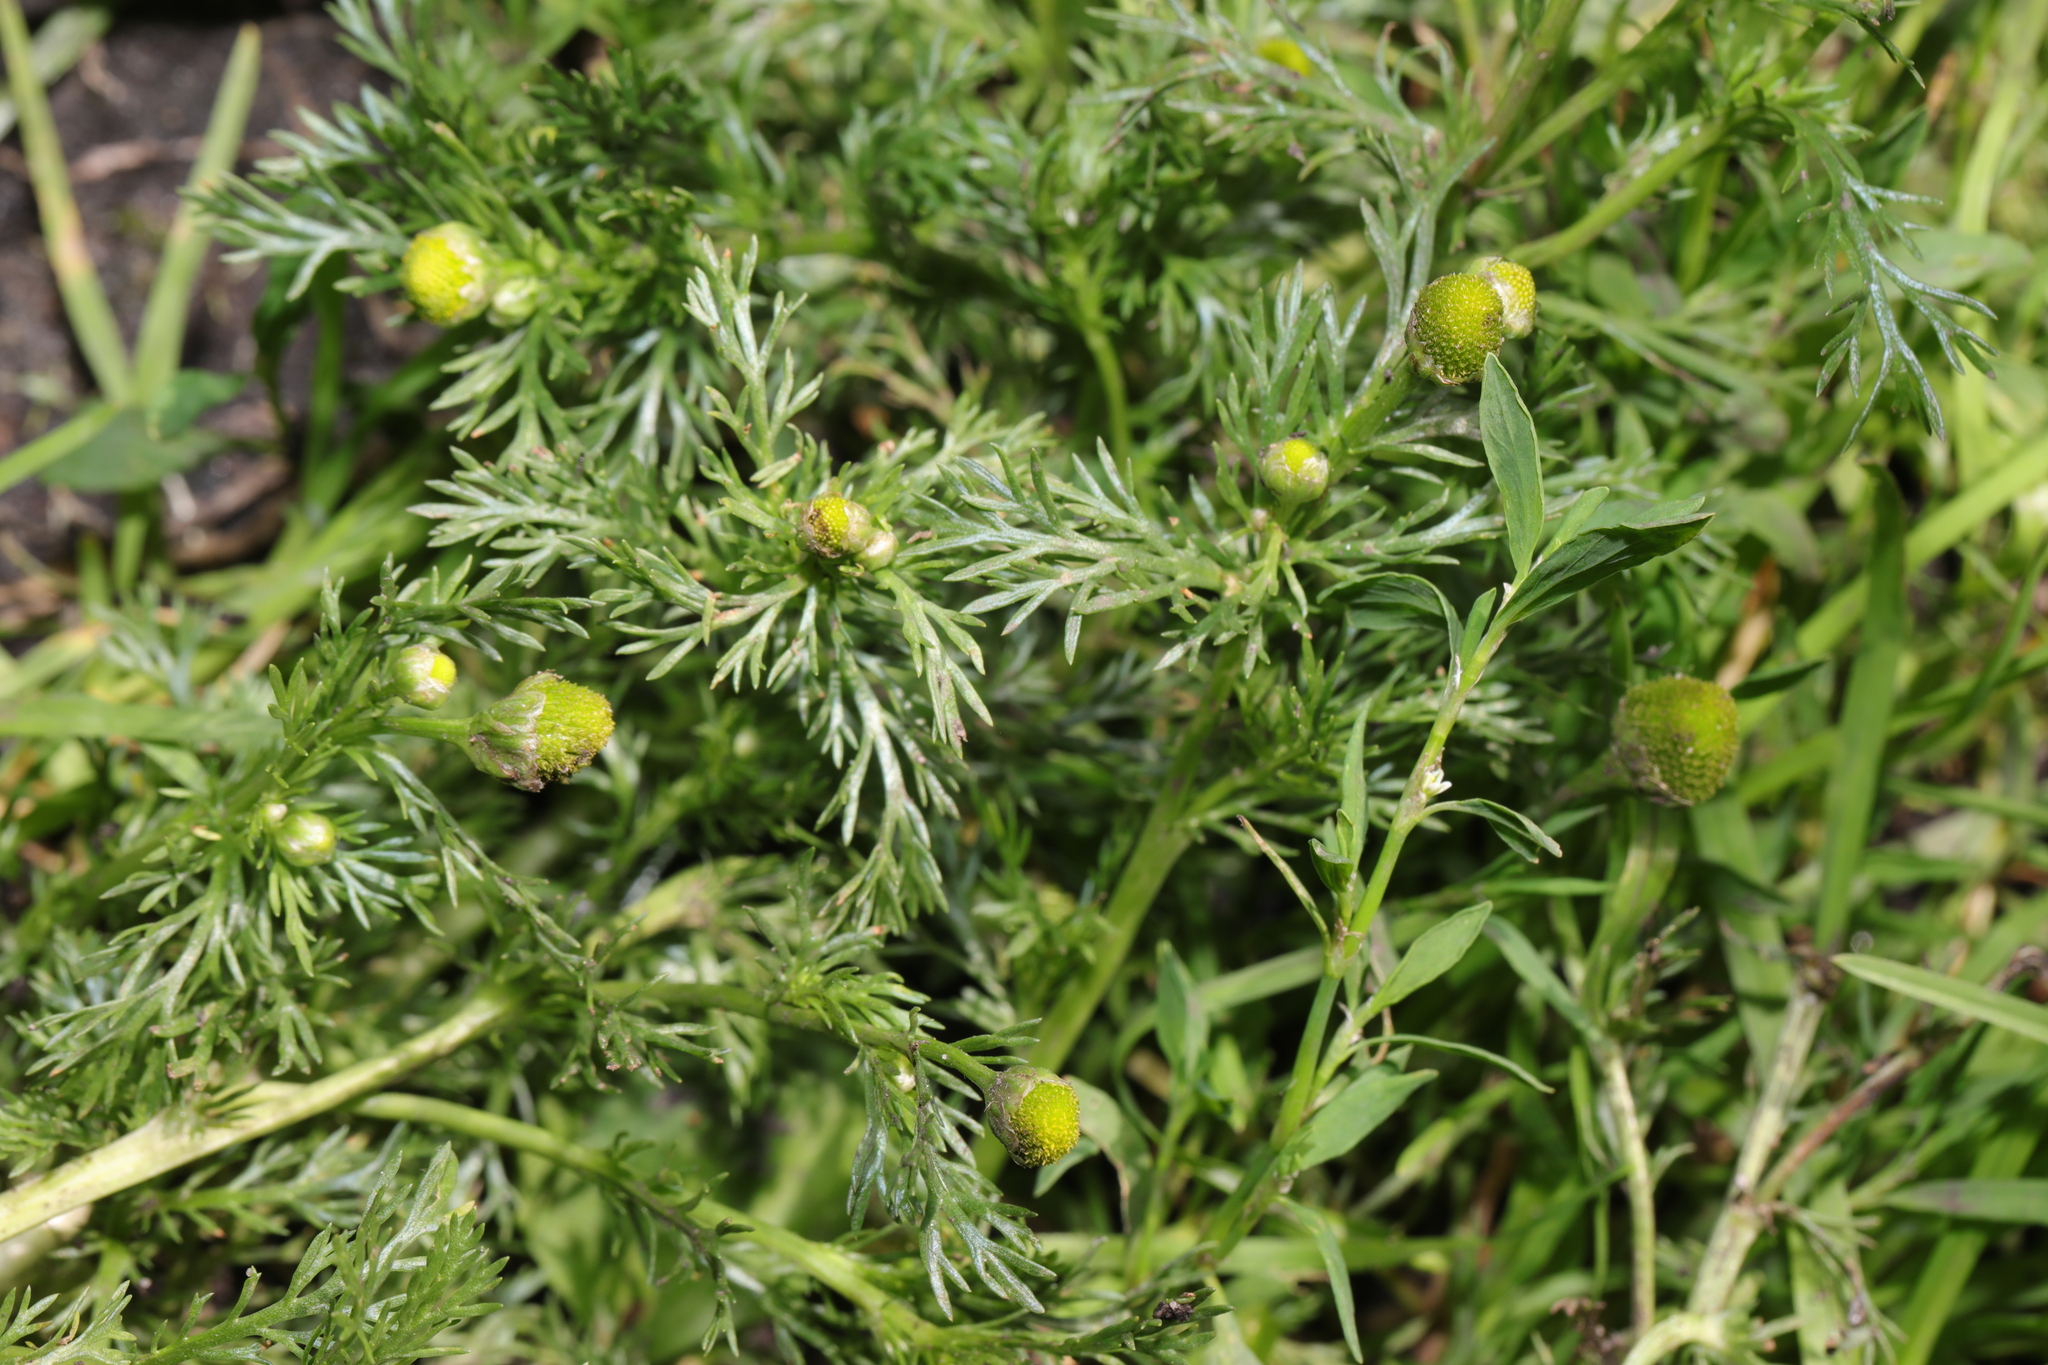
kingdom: Plantae
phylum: Tracheophyta
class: Magnoliopsida
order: Asterales
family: Asteraceae
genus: Matricaria
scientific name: Matricaria discoidea
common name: Disc mayweed
